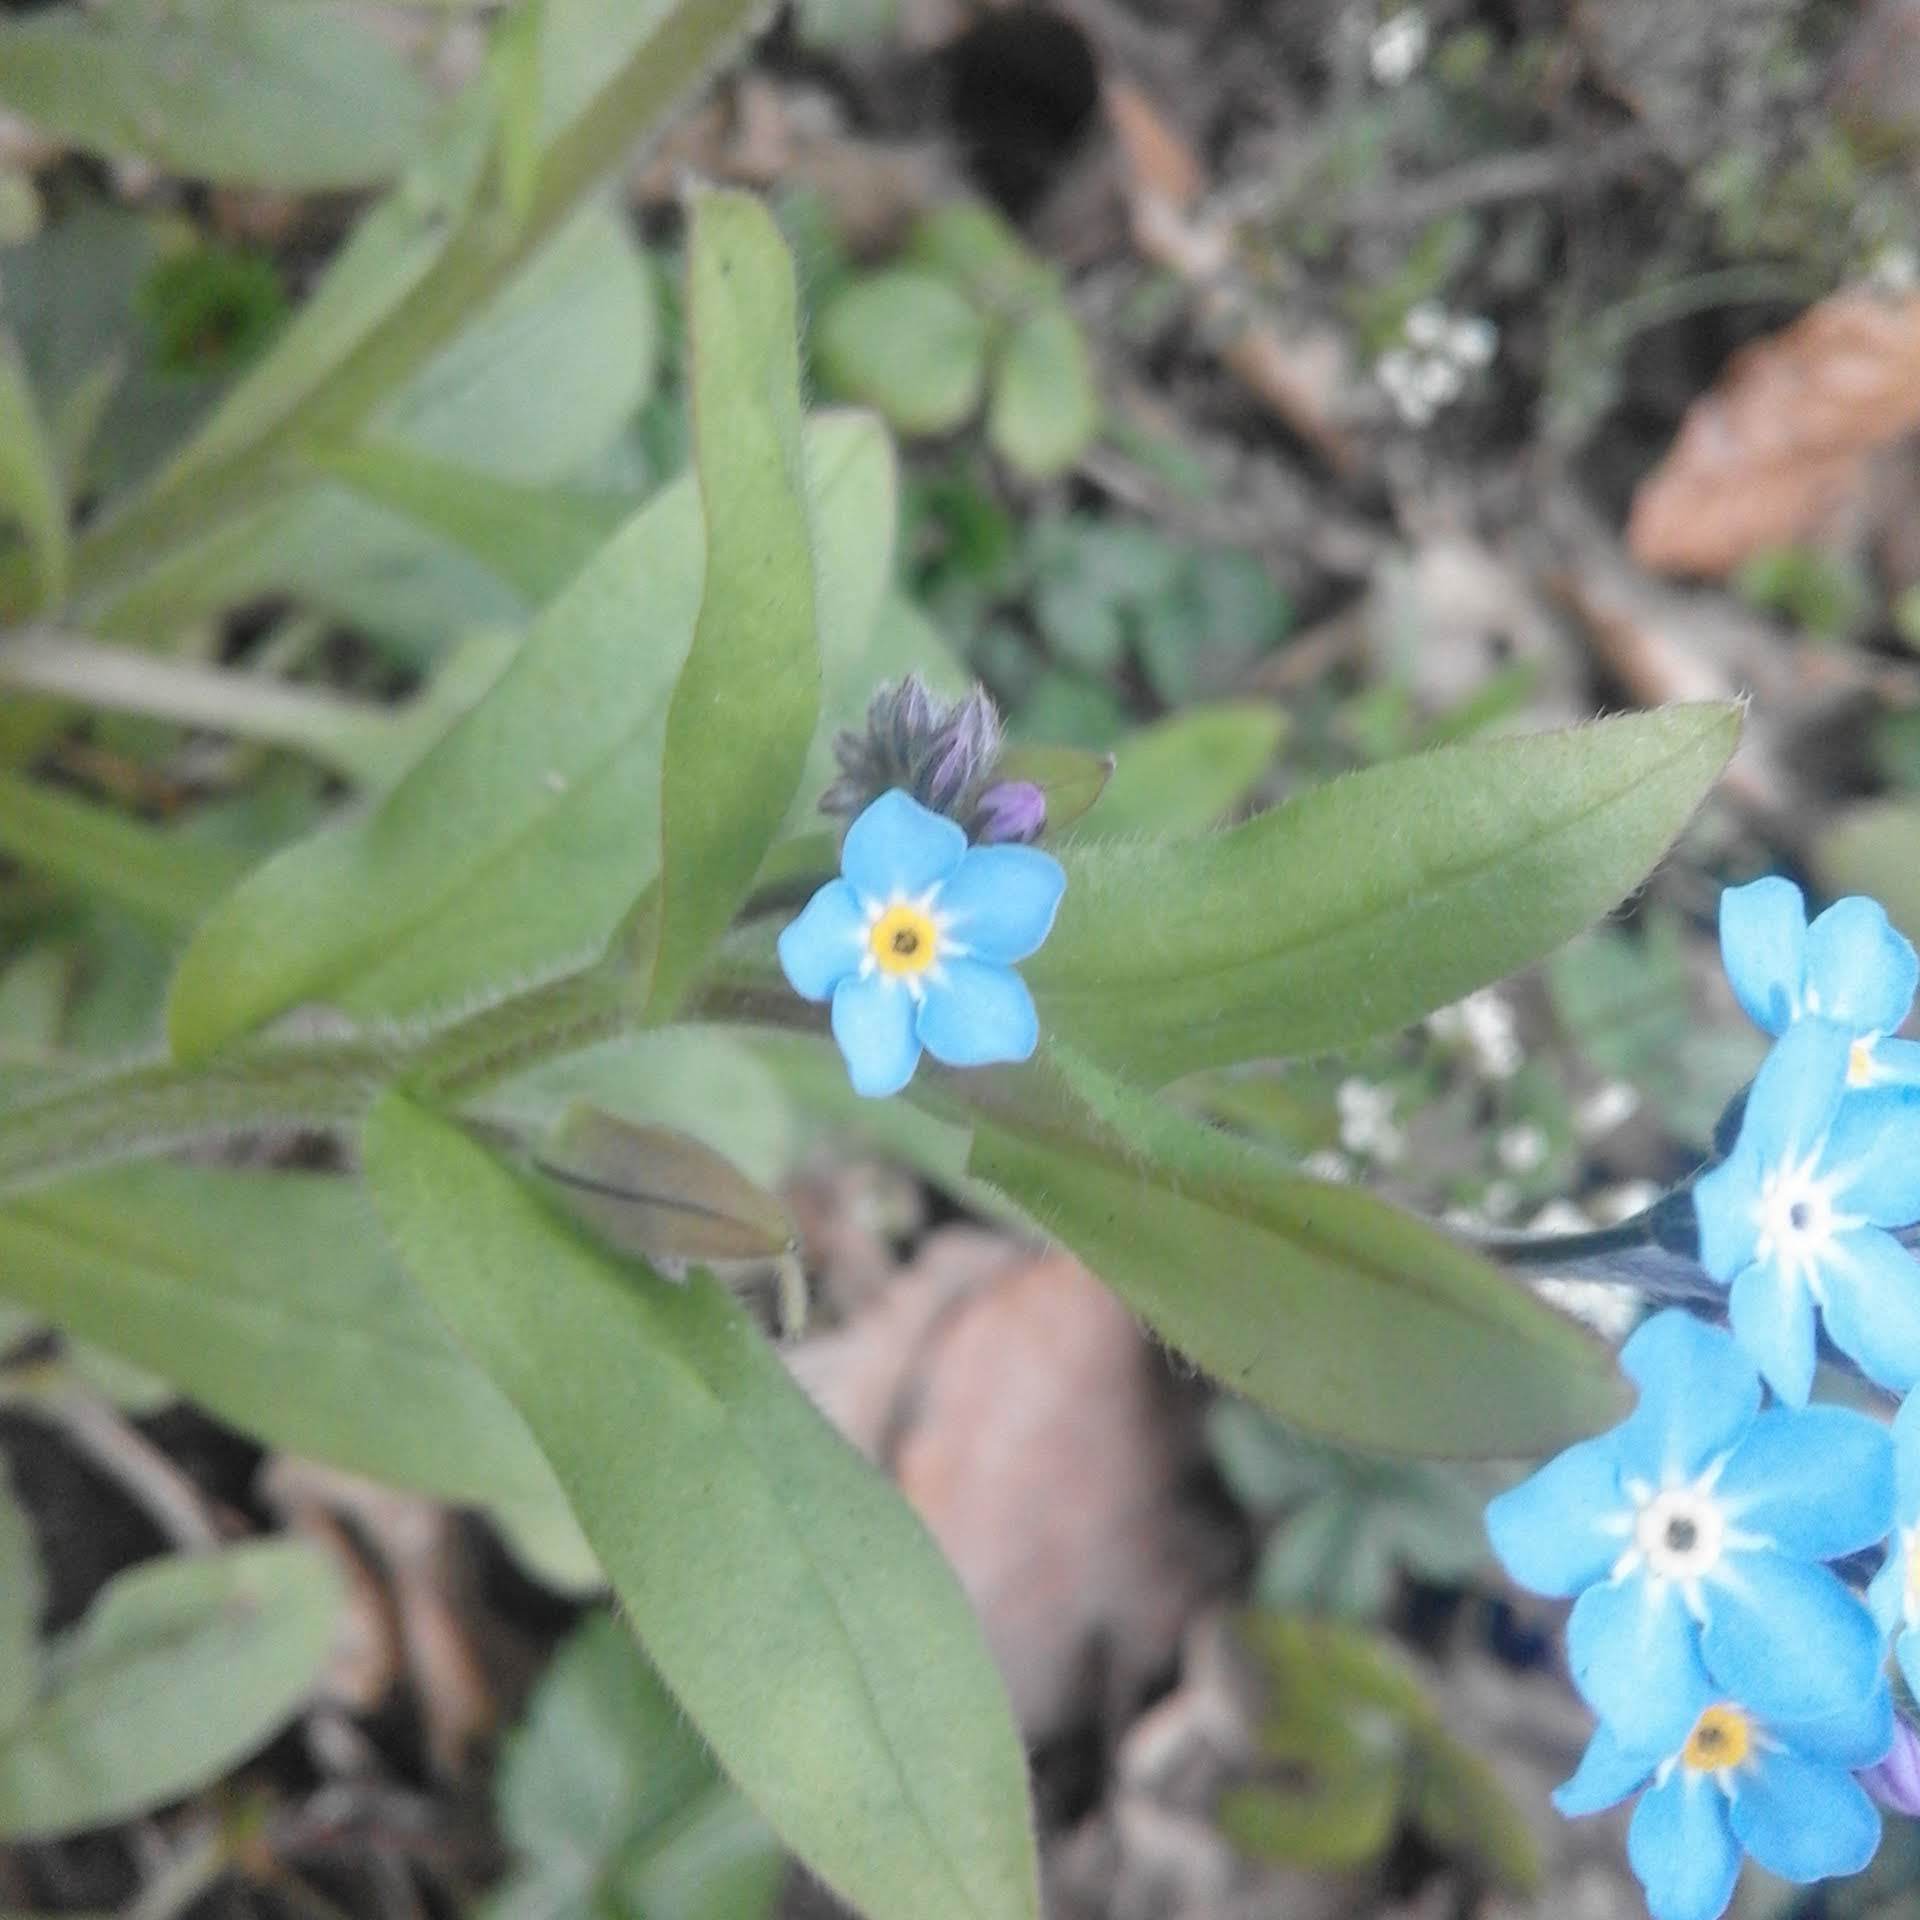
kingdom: Plantae
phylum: Tracheophyta
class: Magnoliopsida
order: Boraginales
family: Boraginaceae
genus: Myosotis
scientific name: Myosotis sylvatica
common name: Wood forget-me-not
